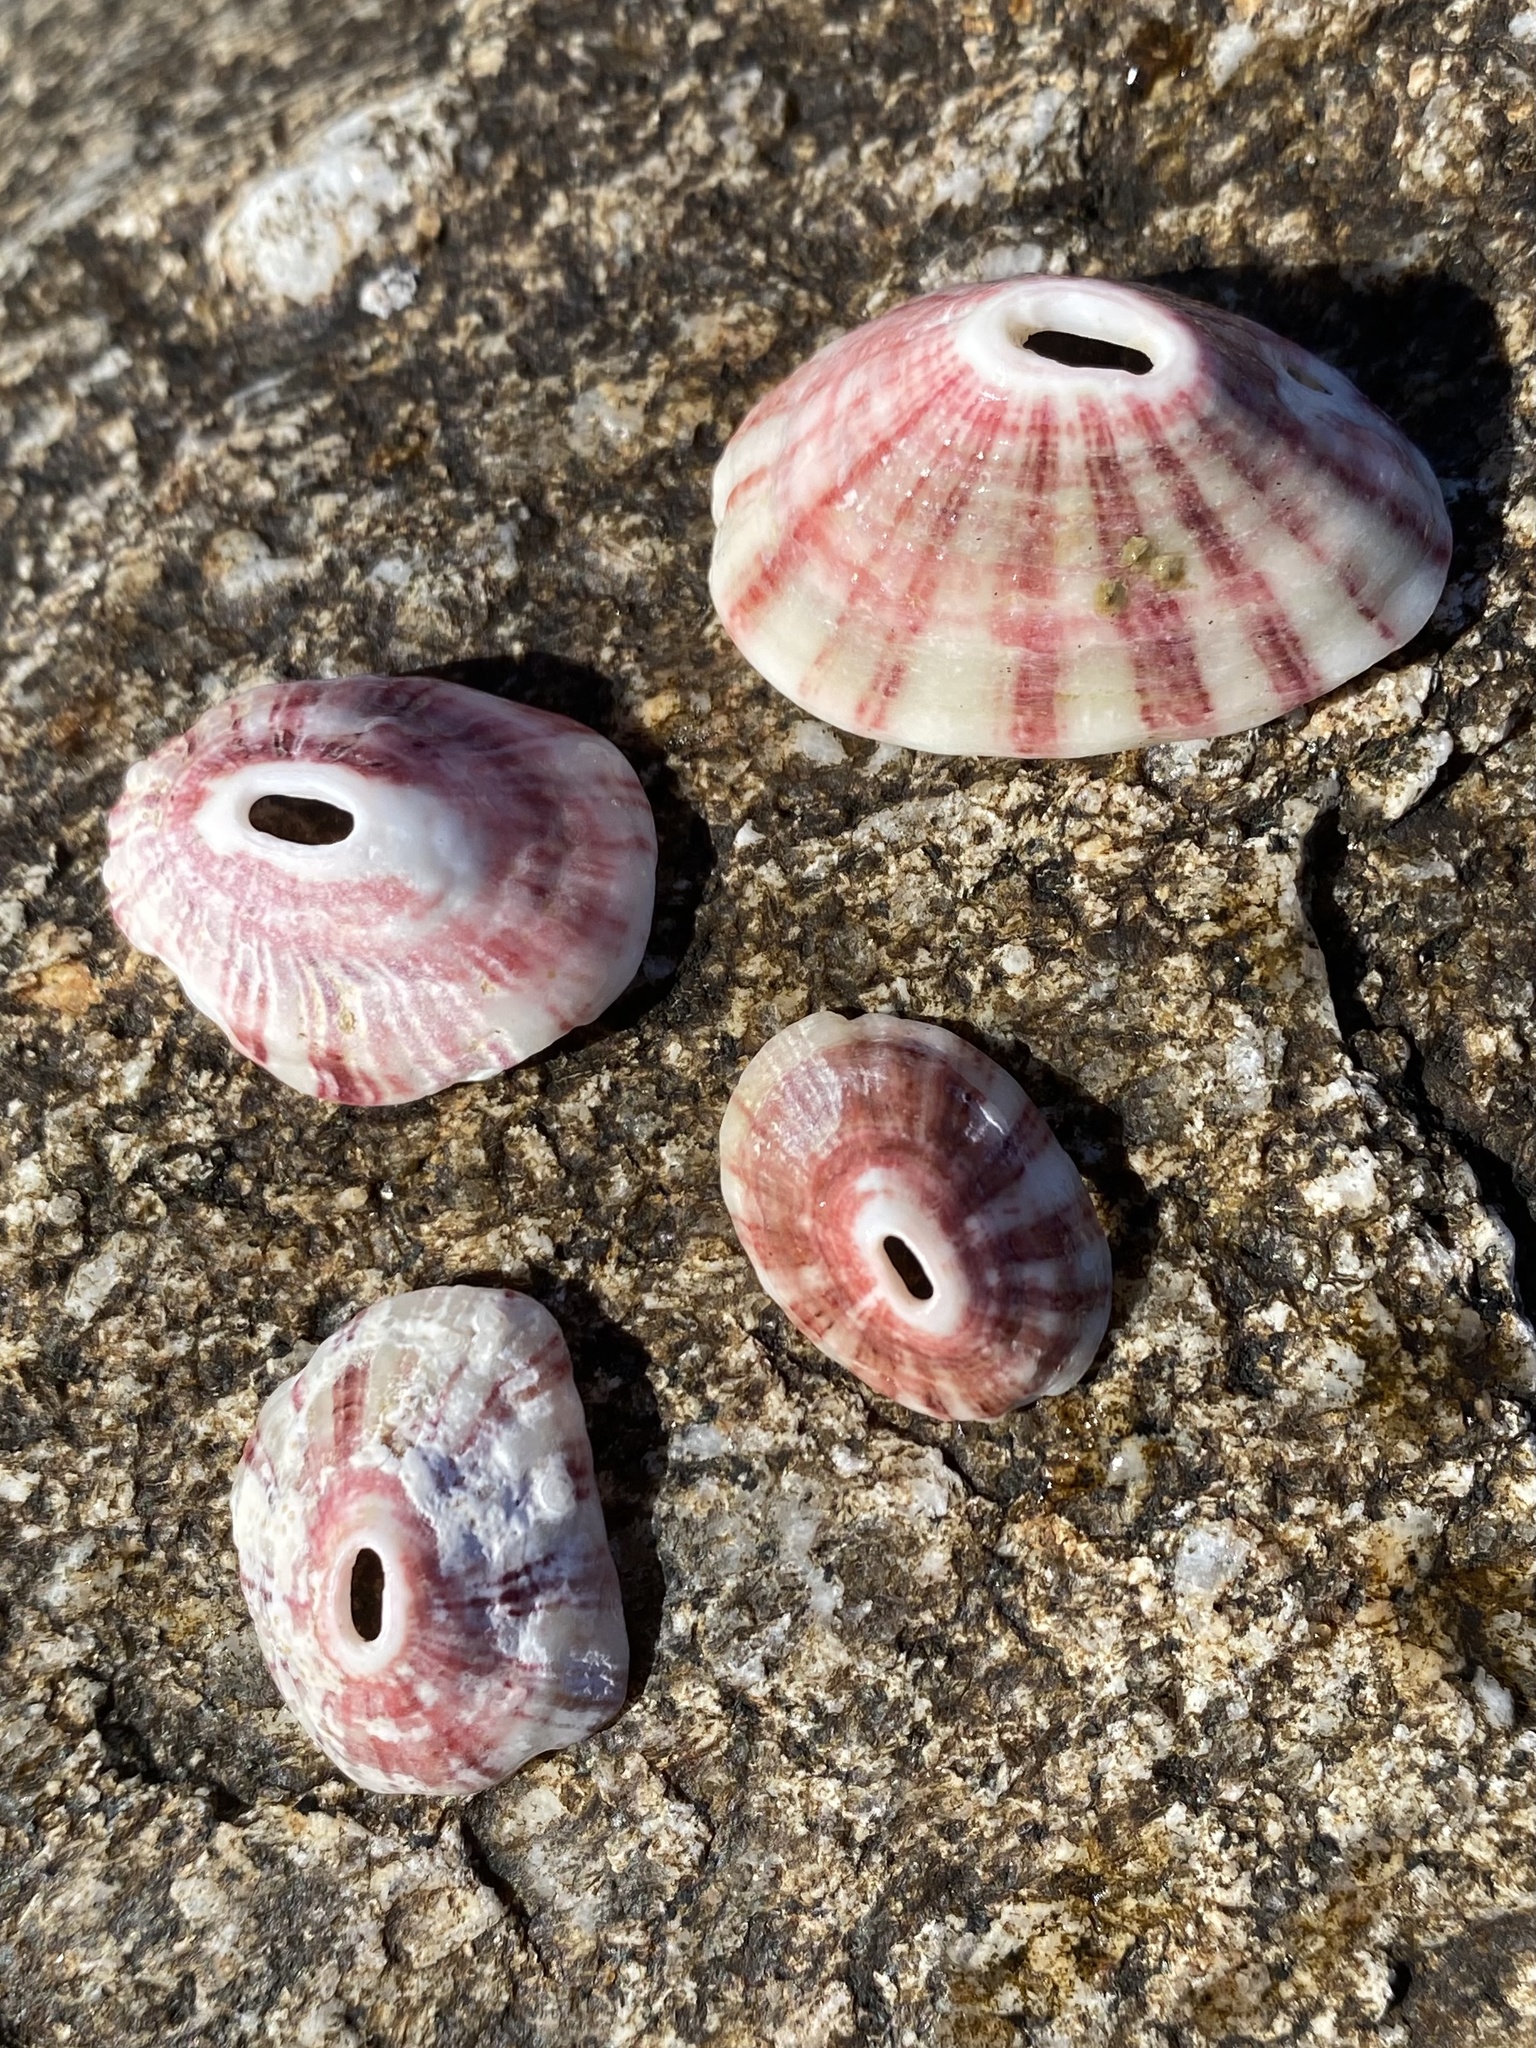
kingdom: Animalia
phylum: Mollusca
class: Gastropoda
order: Lepetellida
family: Fissurellidae
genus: Fissurella
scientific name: Fissurella volcano
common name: Volcano keyhole limpet
